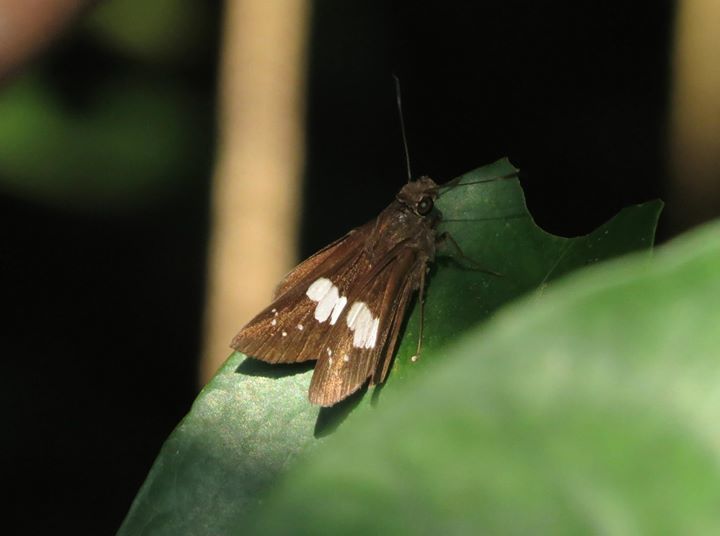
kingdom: Animalia
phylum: Arthropoda
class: Insecta
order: Lepidoptera
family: Hesperiidae
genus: Notocrypta
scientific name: Notocrypta paralysos
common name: Common banded demon
